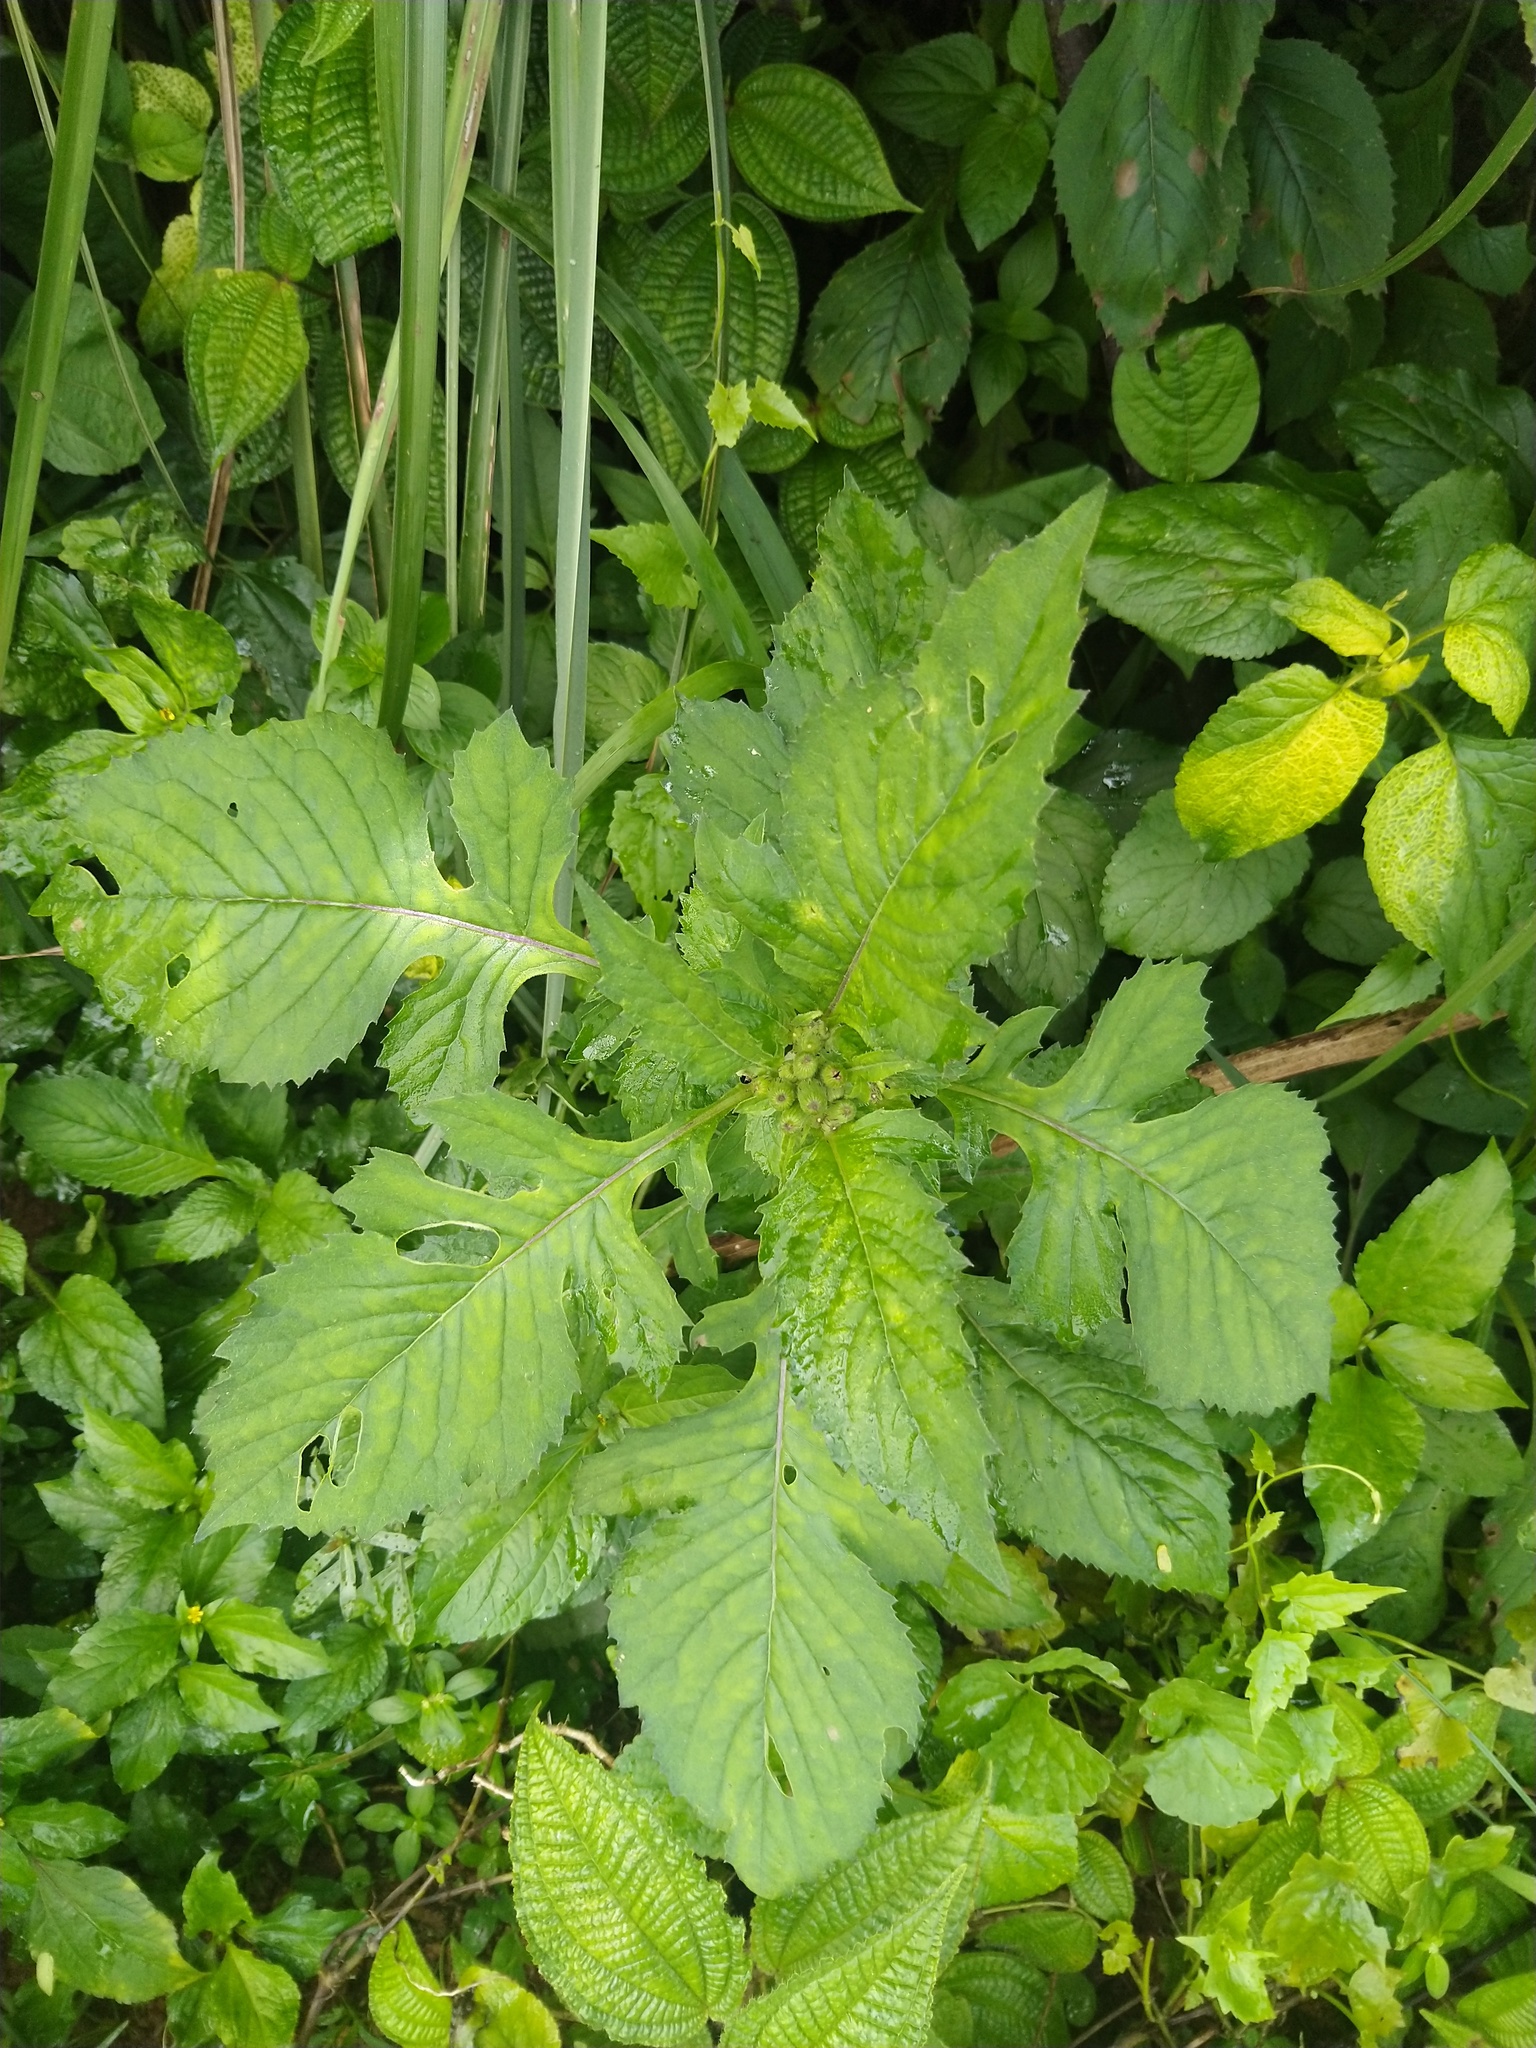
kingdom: Plantae
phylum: Tracheophyta
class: Magnoliopsida
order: Asterales
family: Asteraceae
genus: Crassocephalum
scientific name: Crassocephalum crepidioides
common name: Redflower ragleaf
